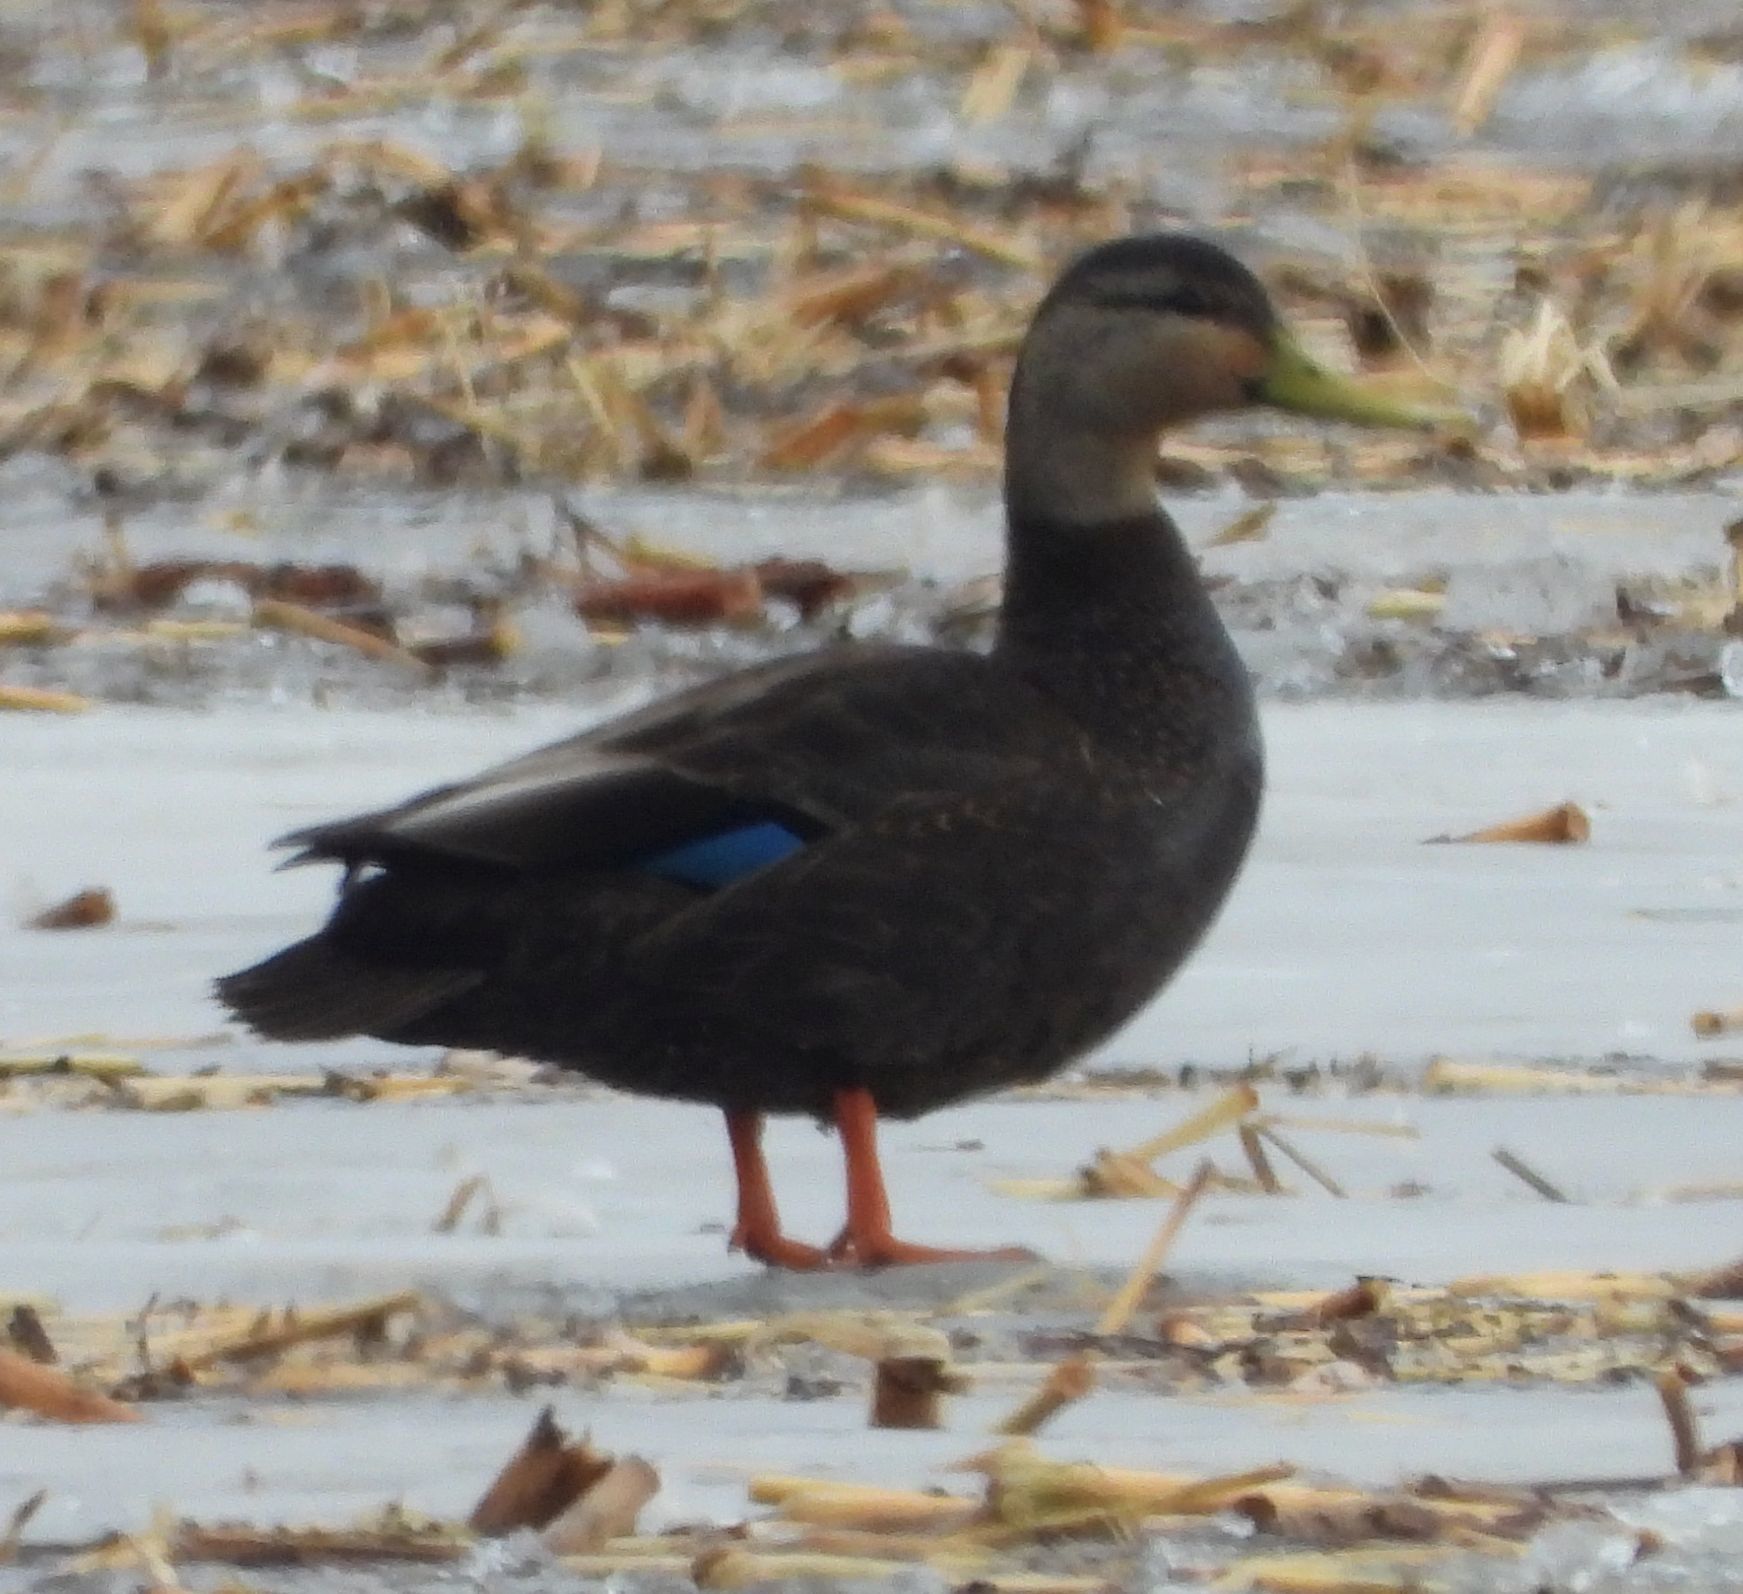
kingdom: Animalia
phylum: Chordata
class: Aves
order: Anseriformes
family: Anatidae
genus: Anas
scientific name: Anas rubripes
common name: American black duck
